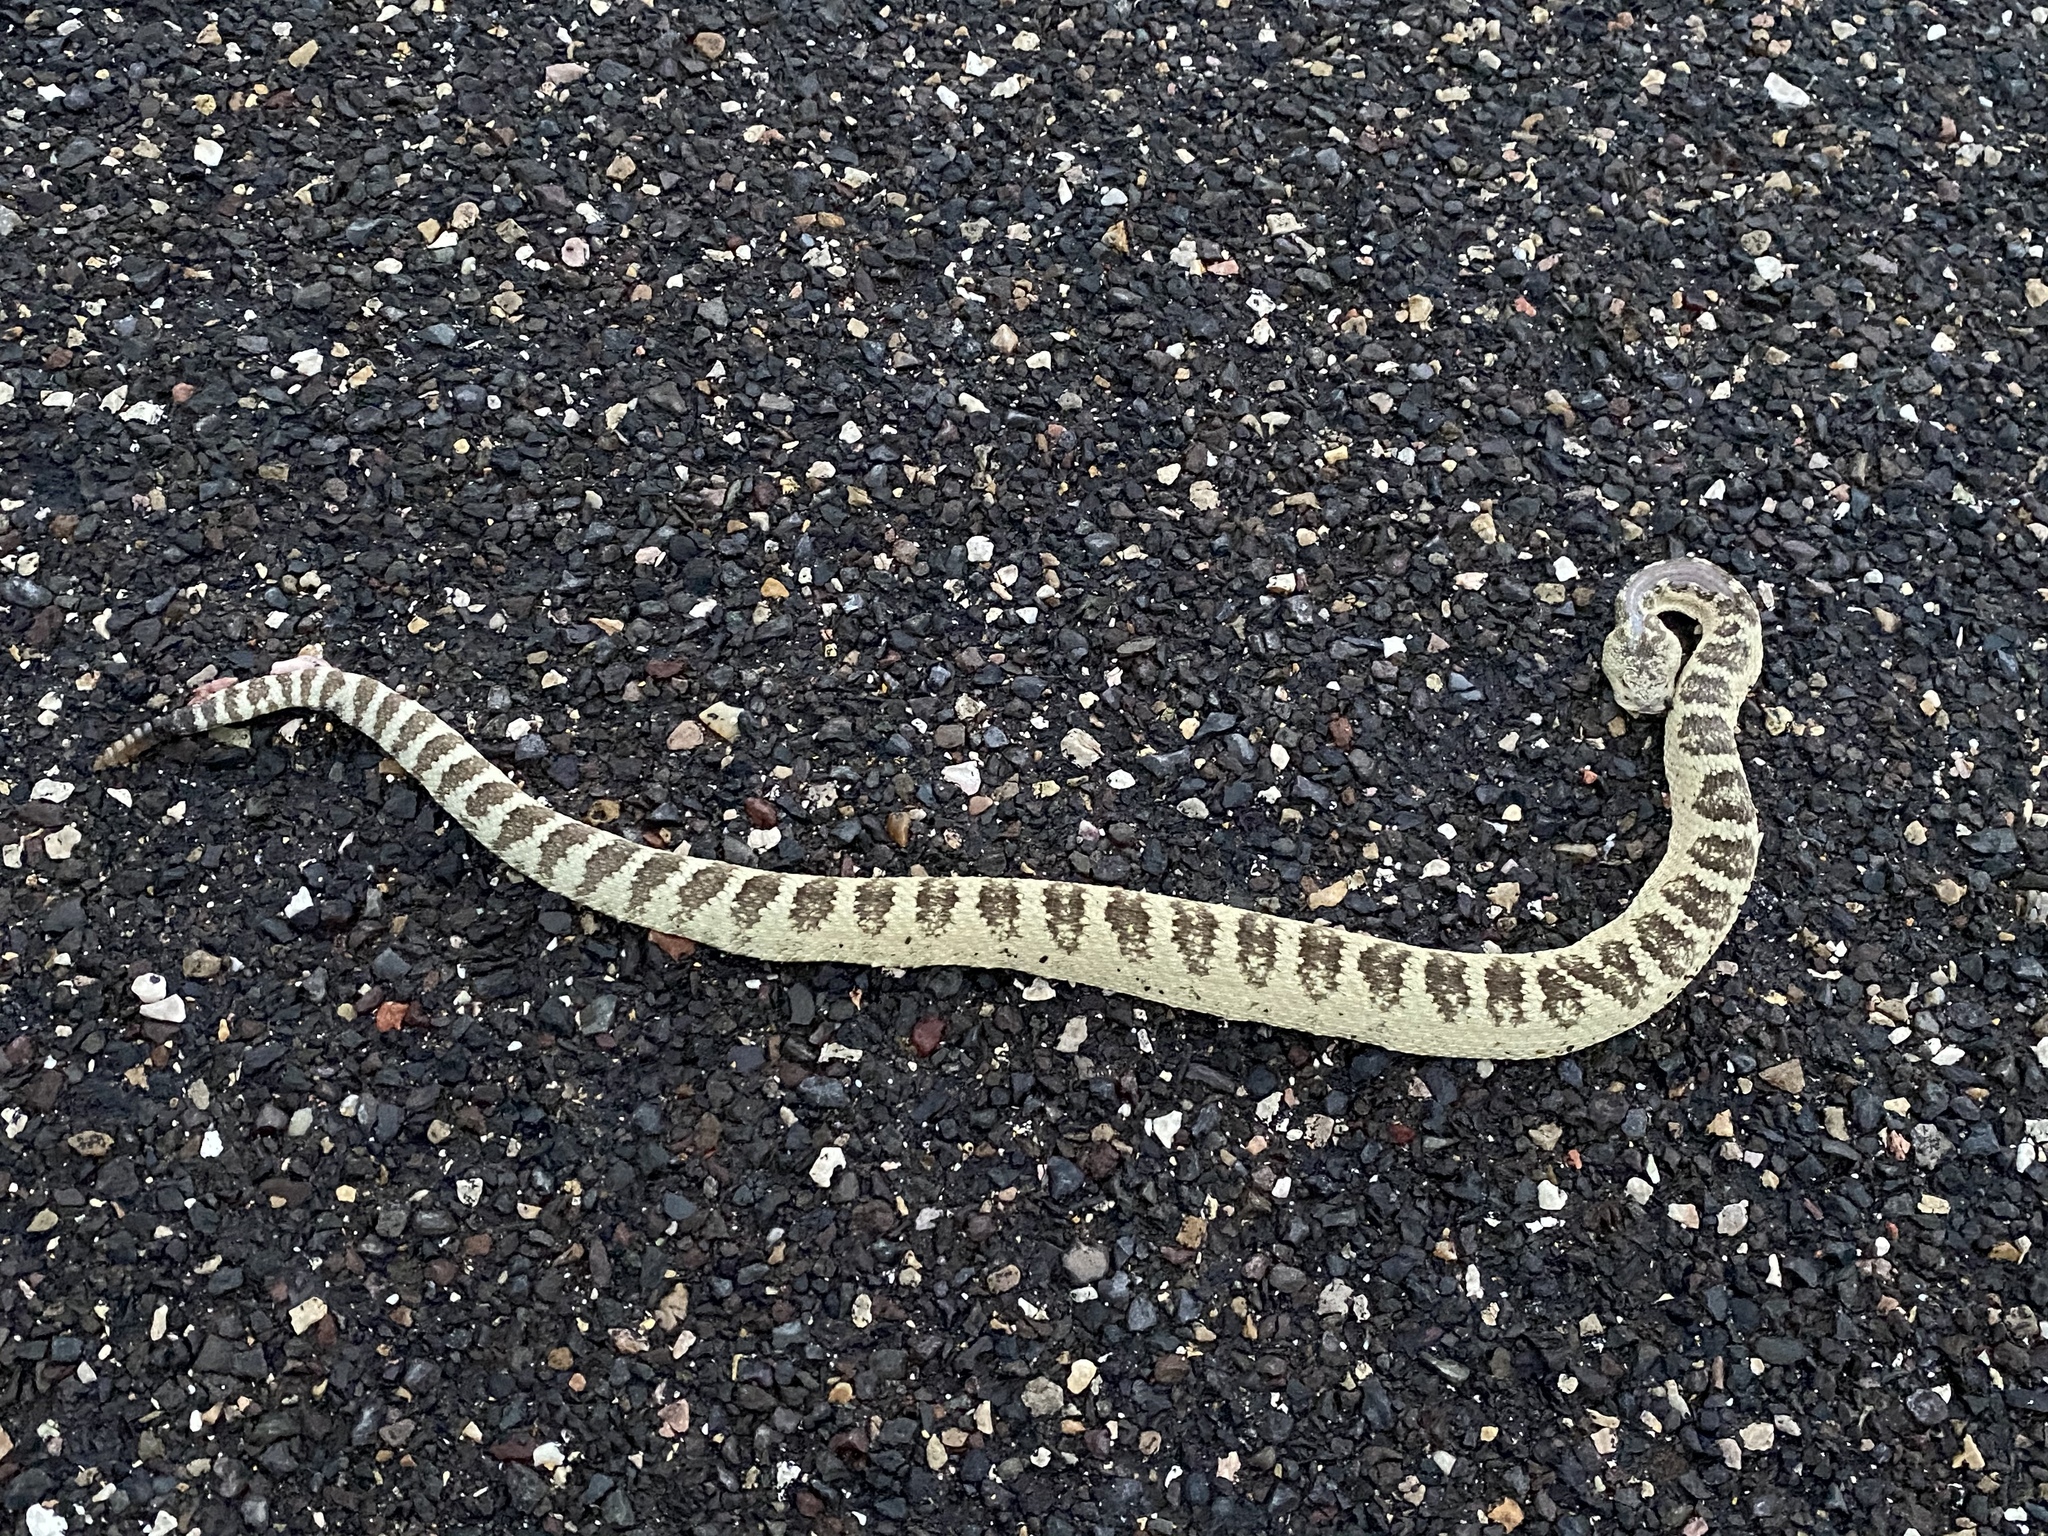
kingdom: Animalia
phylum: Chordata
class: Squamata
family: Viperidae
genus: Crotalus
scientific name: Crotalus oreganus
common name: Abyssus
